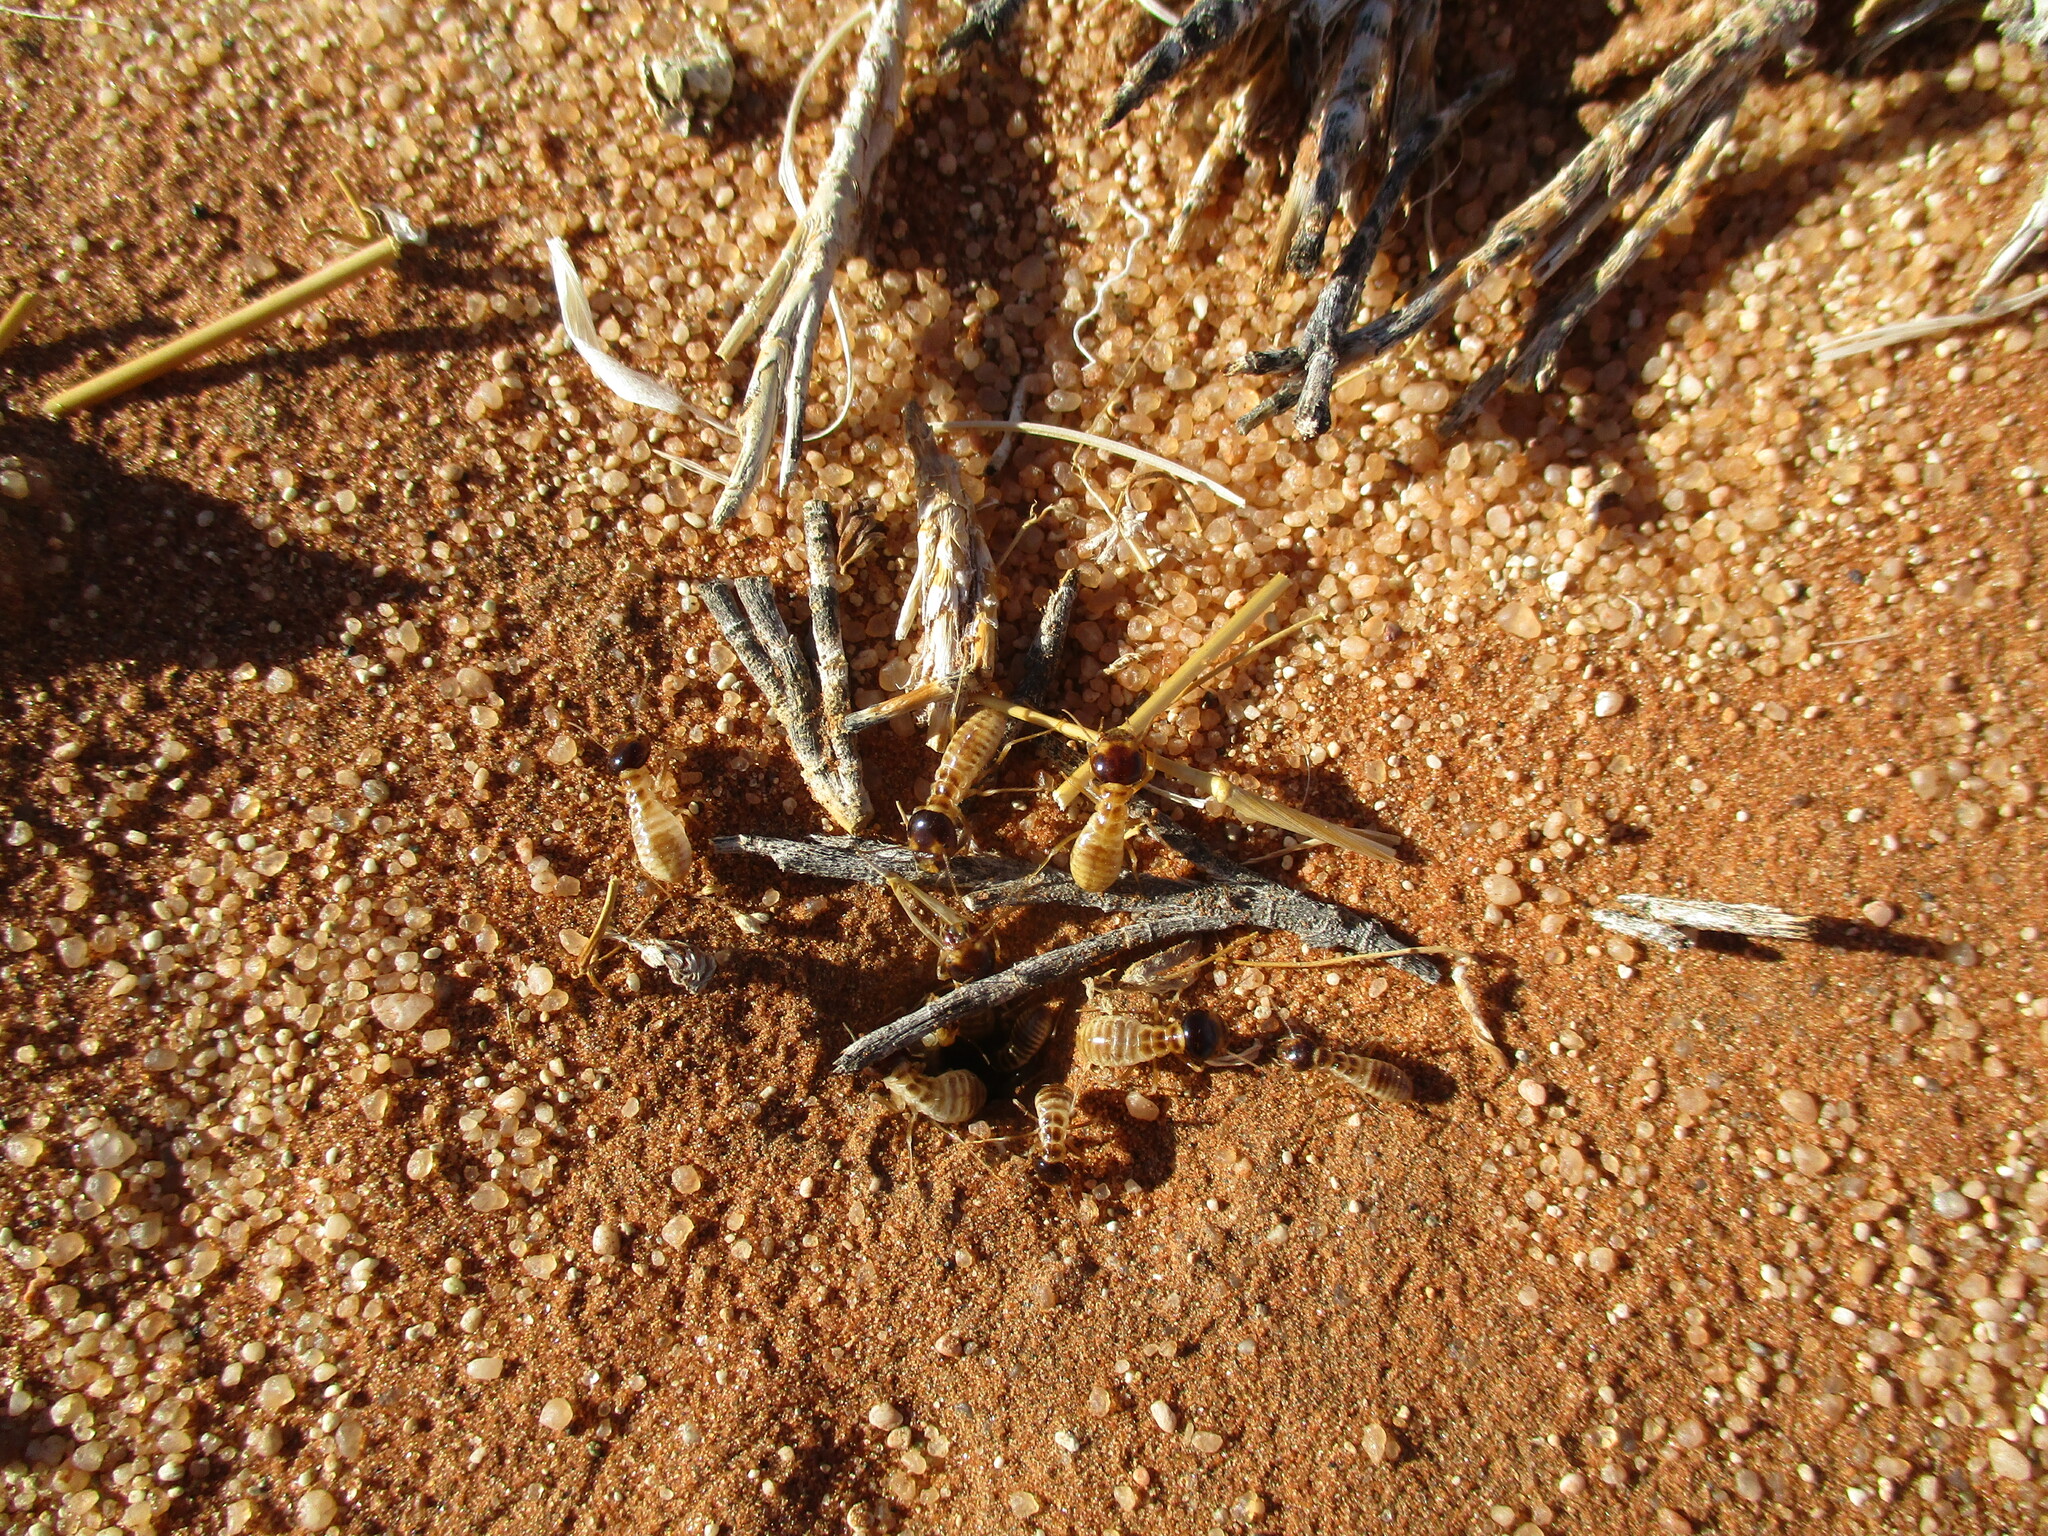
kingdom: Animalia
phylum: Arthropoda
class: Insecta
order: Blattodea
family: Hodotermitidae
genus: Hodotermes
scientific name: Hodotermes mossambicus
